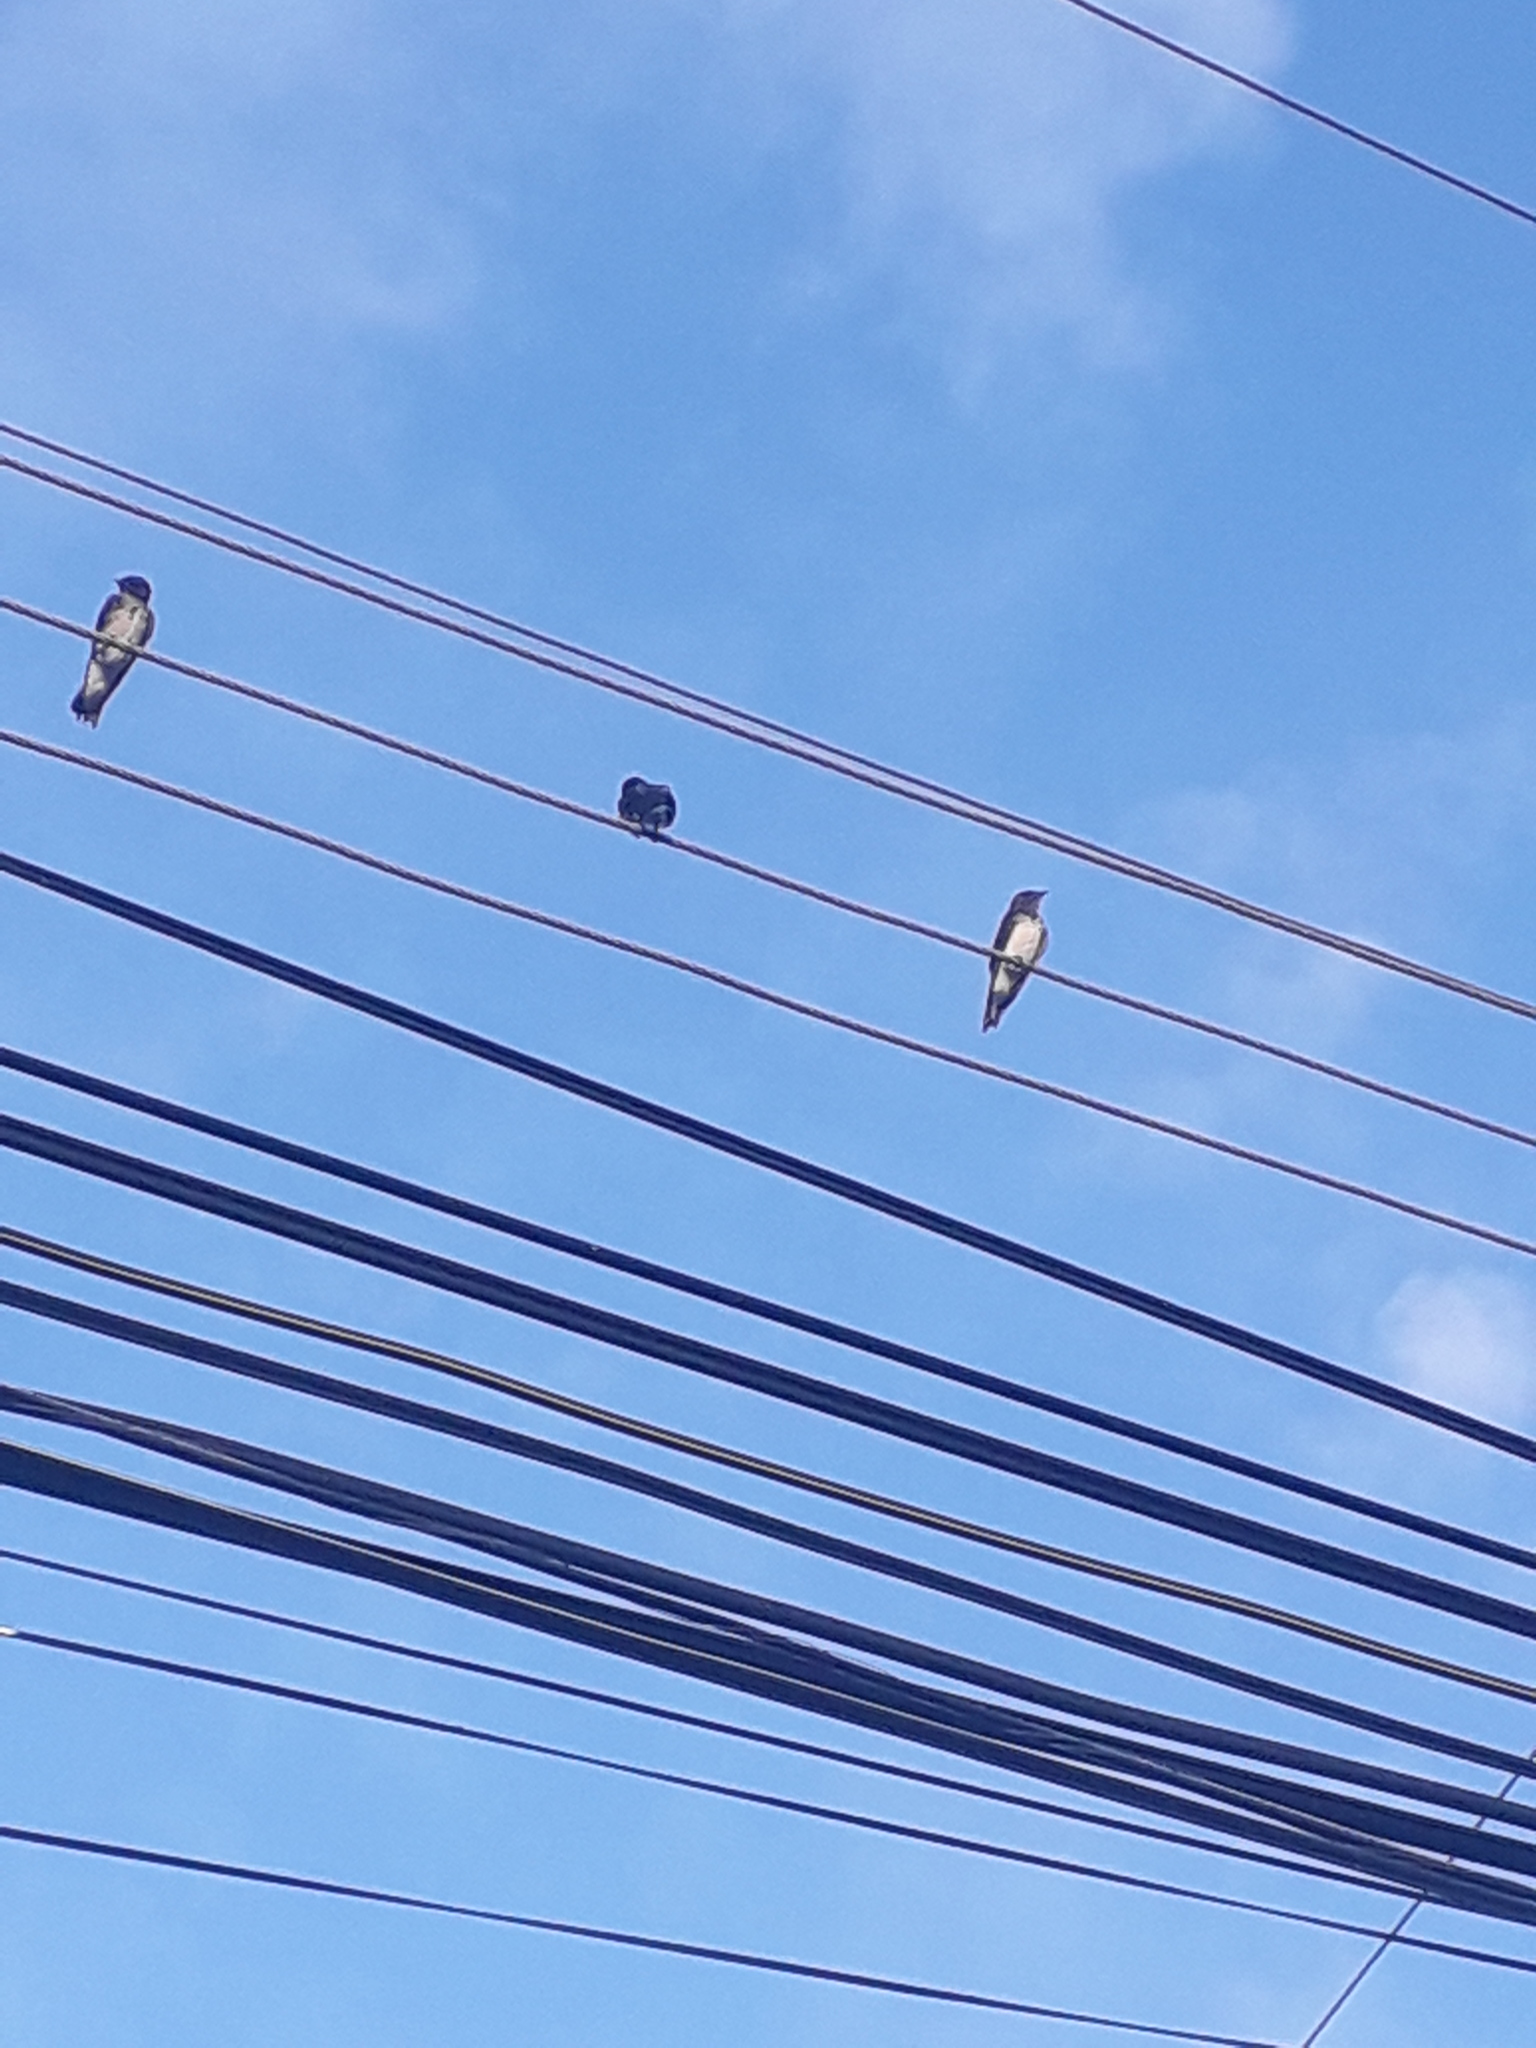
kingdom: Animalia
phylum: Chordata
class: Aves
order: Passeriformes
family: Hirundinidae
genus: Progne
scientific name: Progne chalybea
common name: Grey-breasted martin
